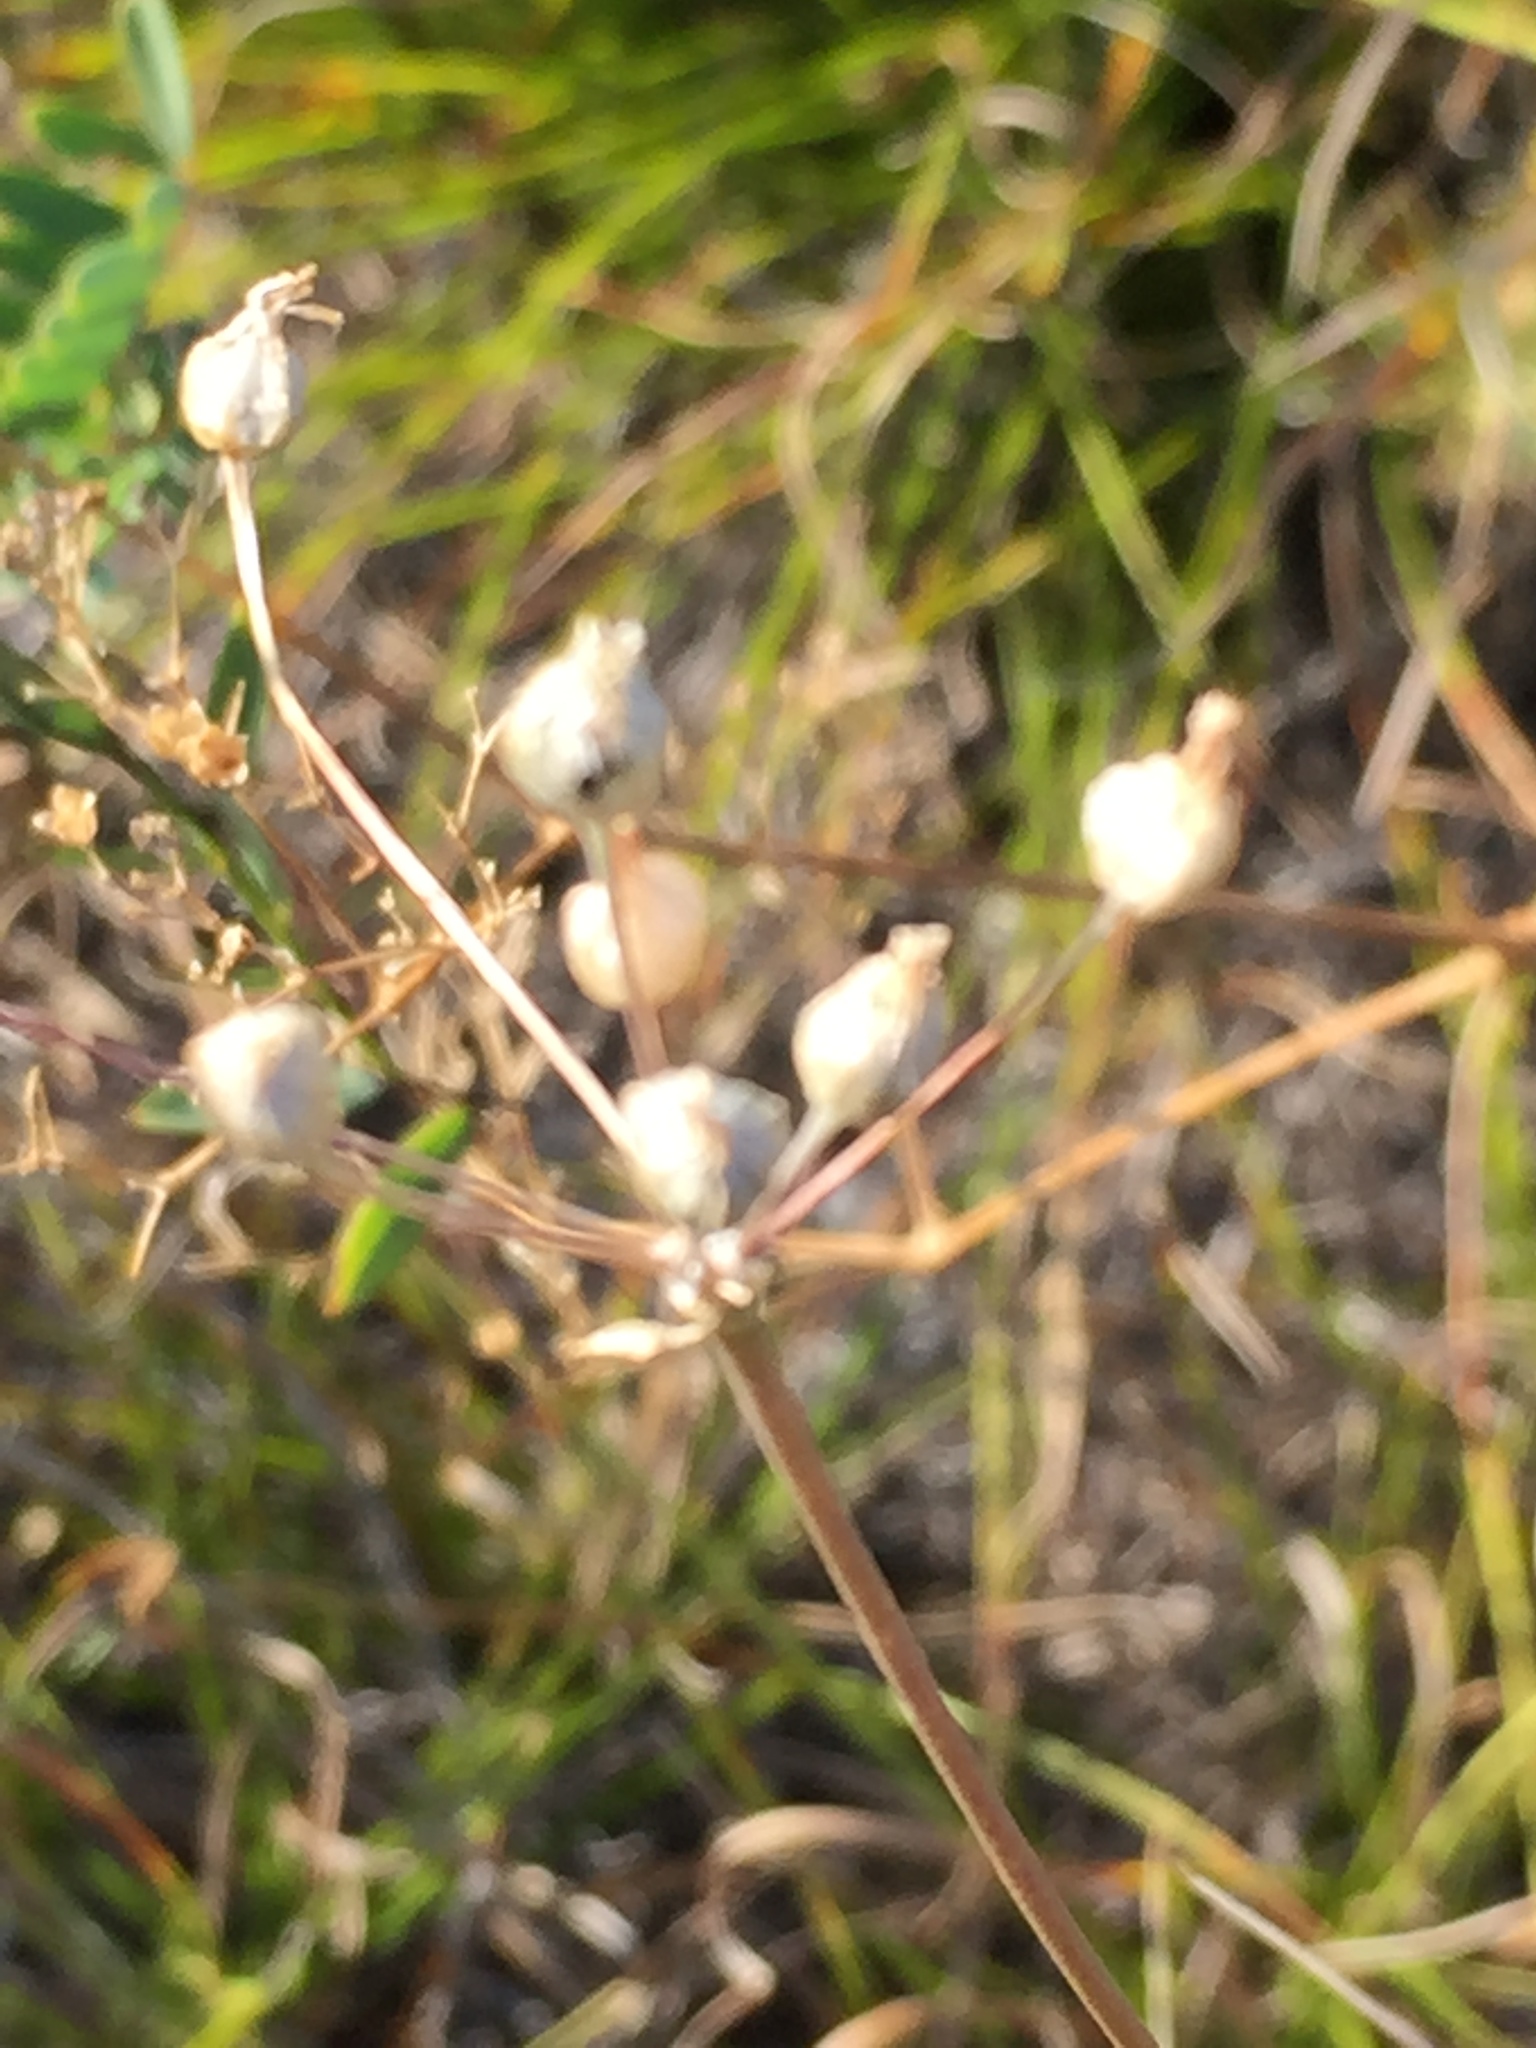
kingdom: Plantae
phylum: Tracheophyta
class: Liliopsida
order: Asparagales
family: Amaryllidaceae
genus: Allium
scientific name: Allium inaequale
